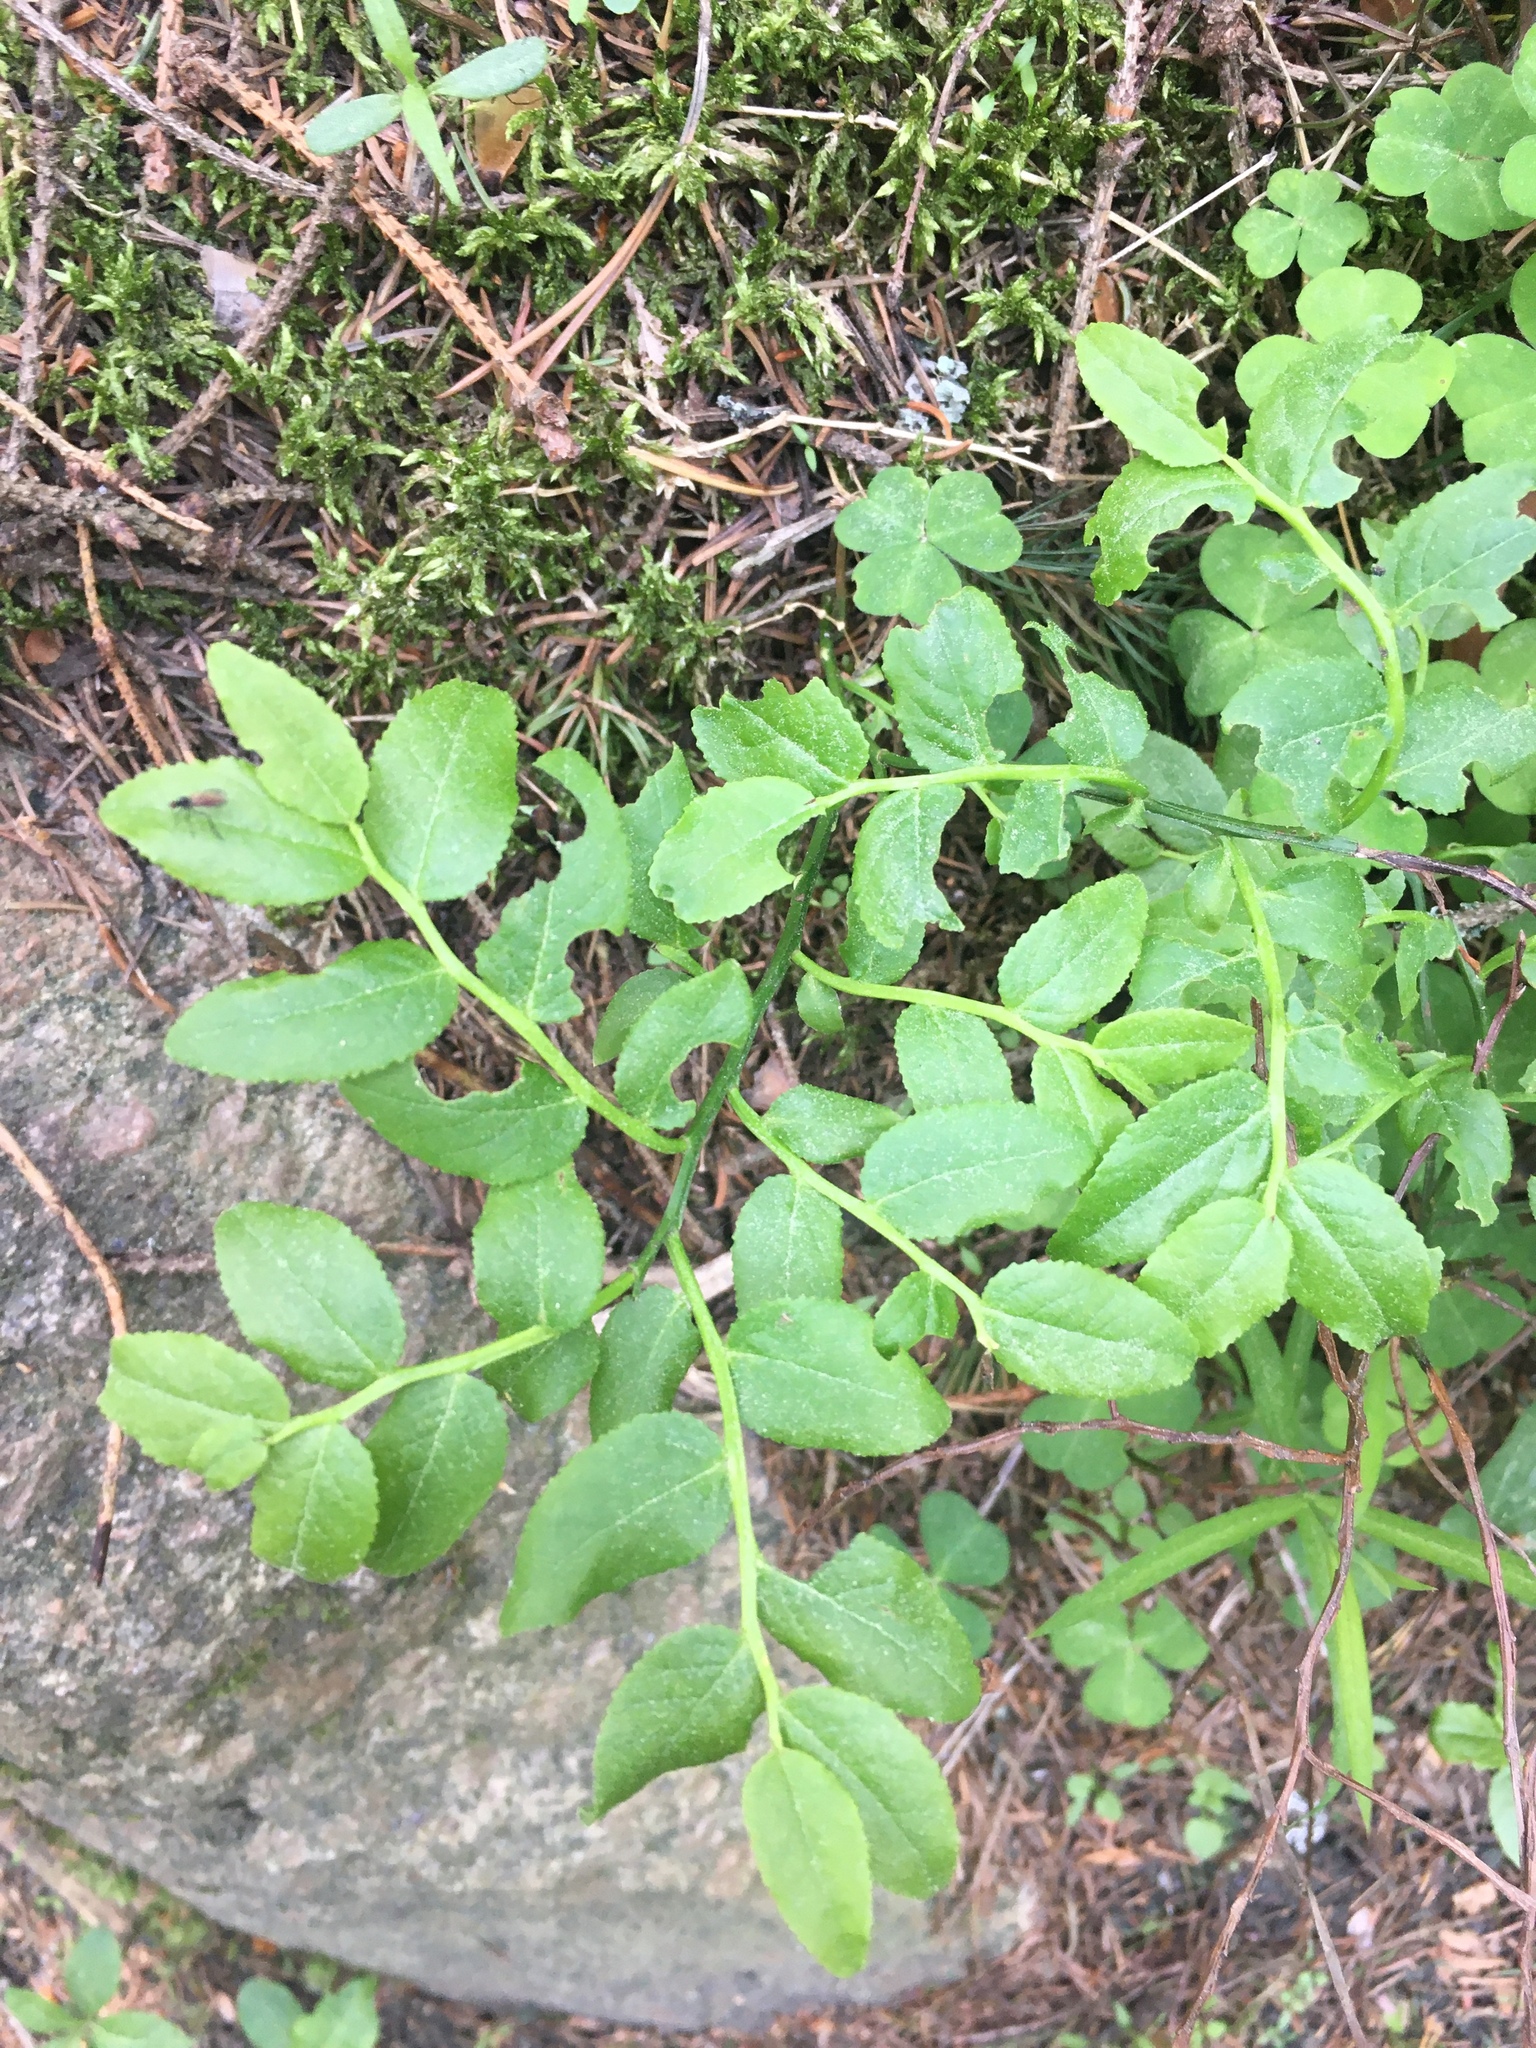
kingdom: Plantae
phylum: Tracheophyta
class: Magnoliopsida
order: Ericales
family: Ericaceae
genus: Vaccinium
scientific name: Vaccinium myrtillus
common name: Bilberry
